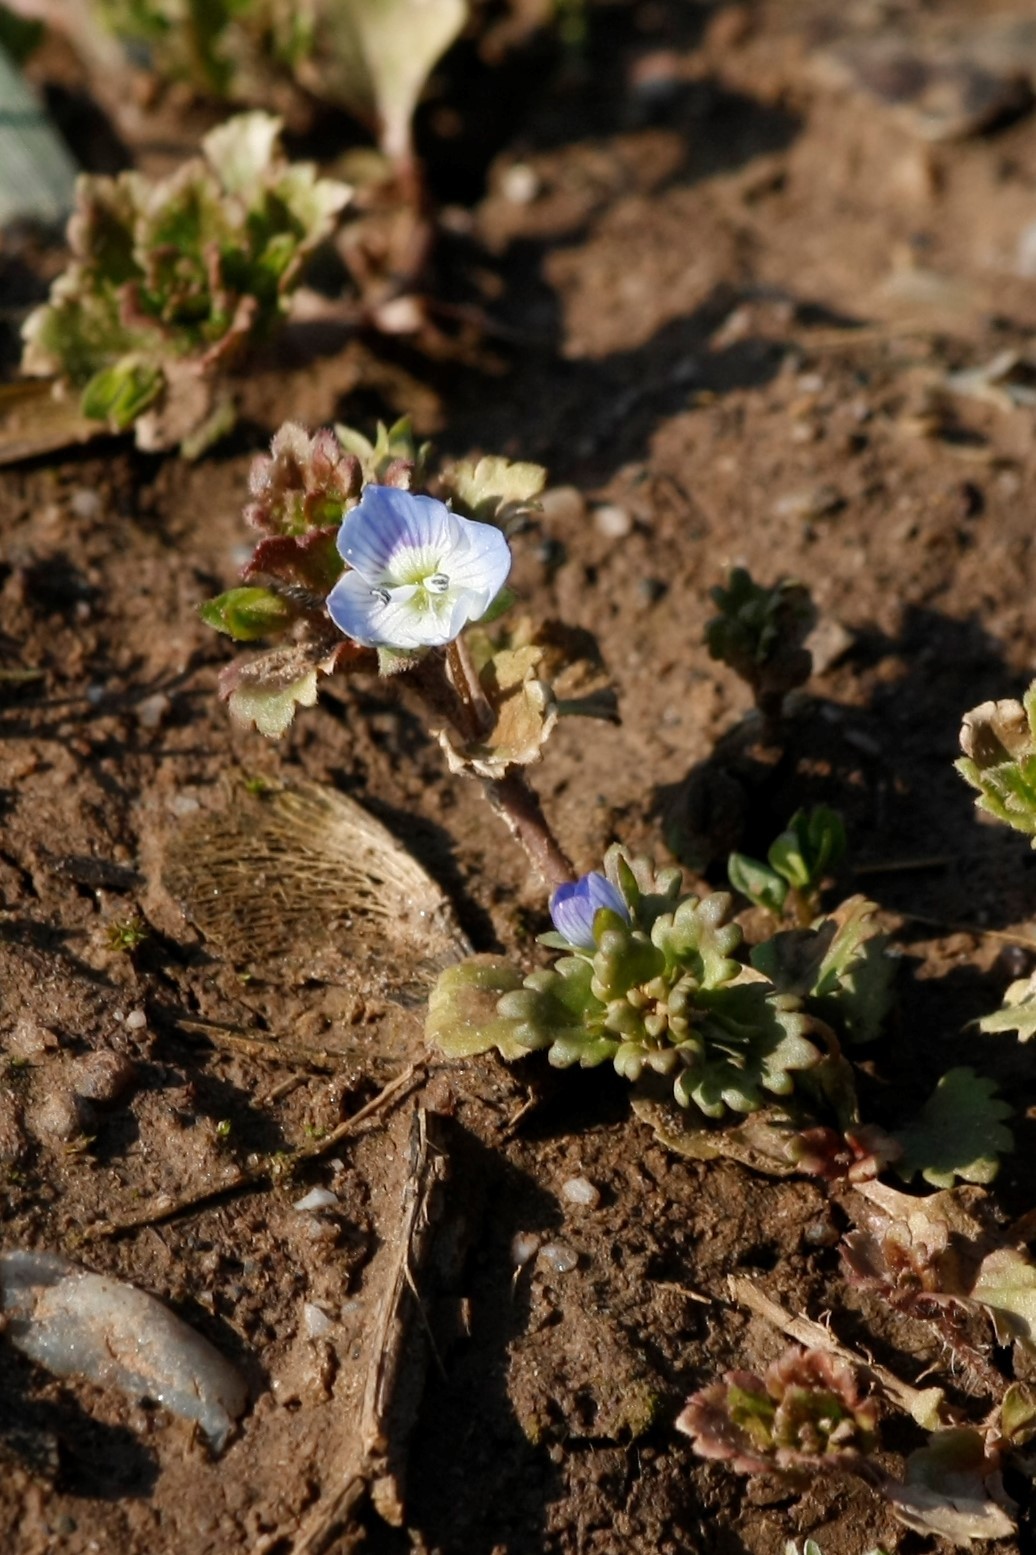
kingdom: Plantae
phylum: Tracheophyta
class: Magnoliopsida
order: Lamiales
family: Plantaginaceae
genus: Veronica
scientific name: Veronica persica
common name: Common field-speedwell
